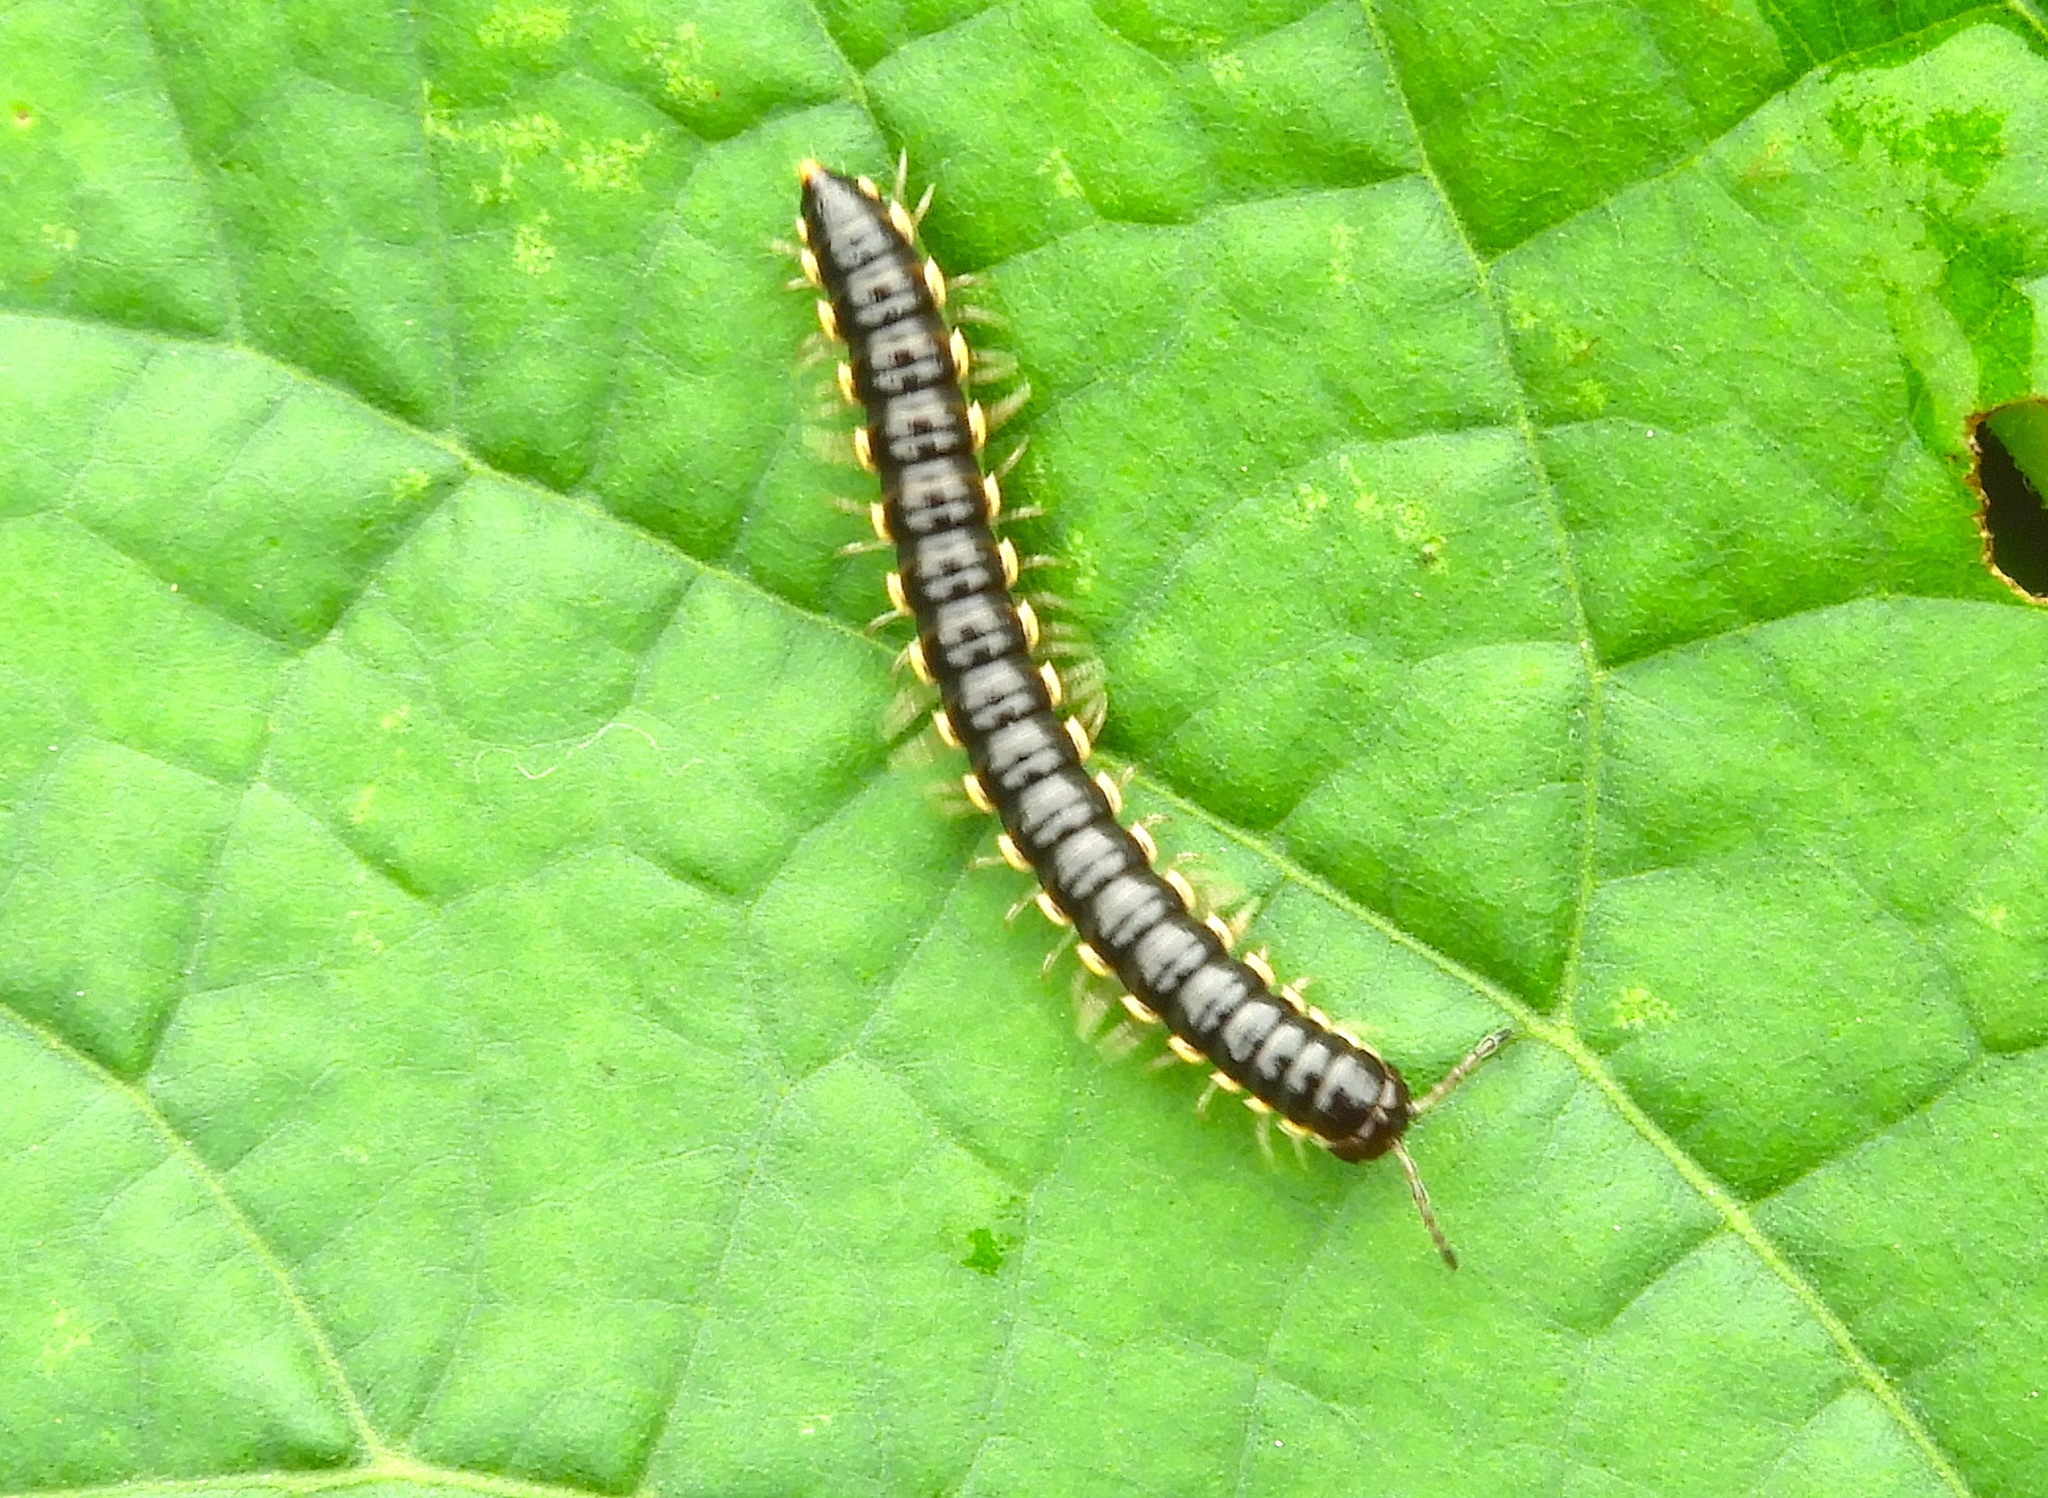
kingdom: Animalia
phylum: Arthropoda
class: Diplopoda
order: Polydesmida
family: Paradoxosomatidae
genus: Orthomorpha
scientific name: Orthomorpha coarctata
